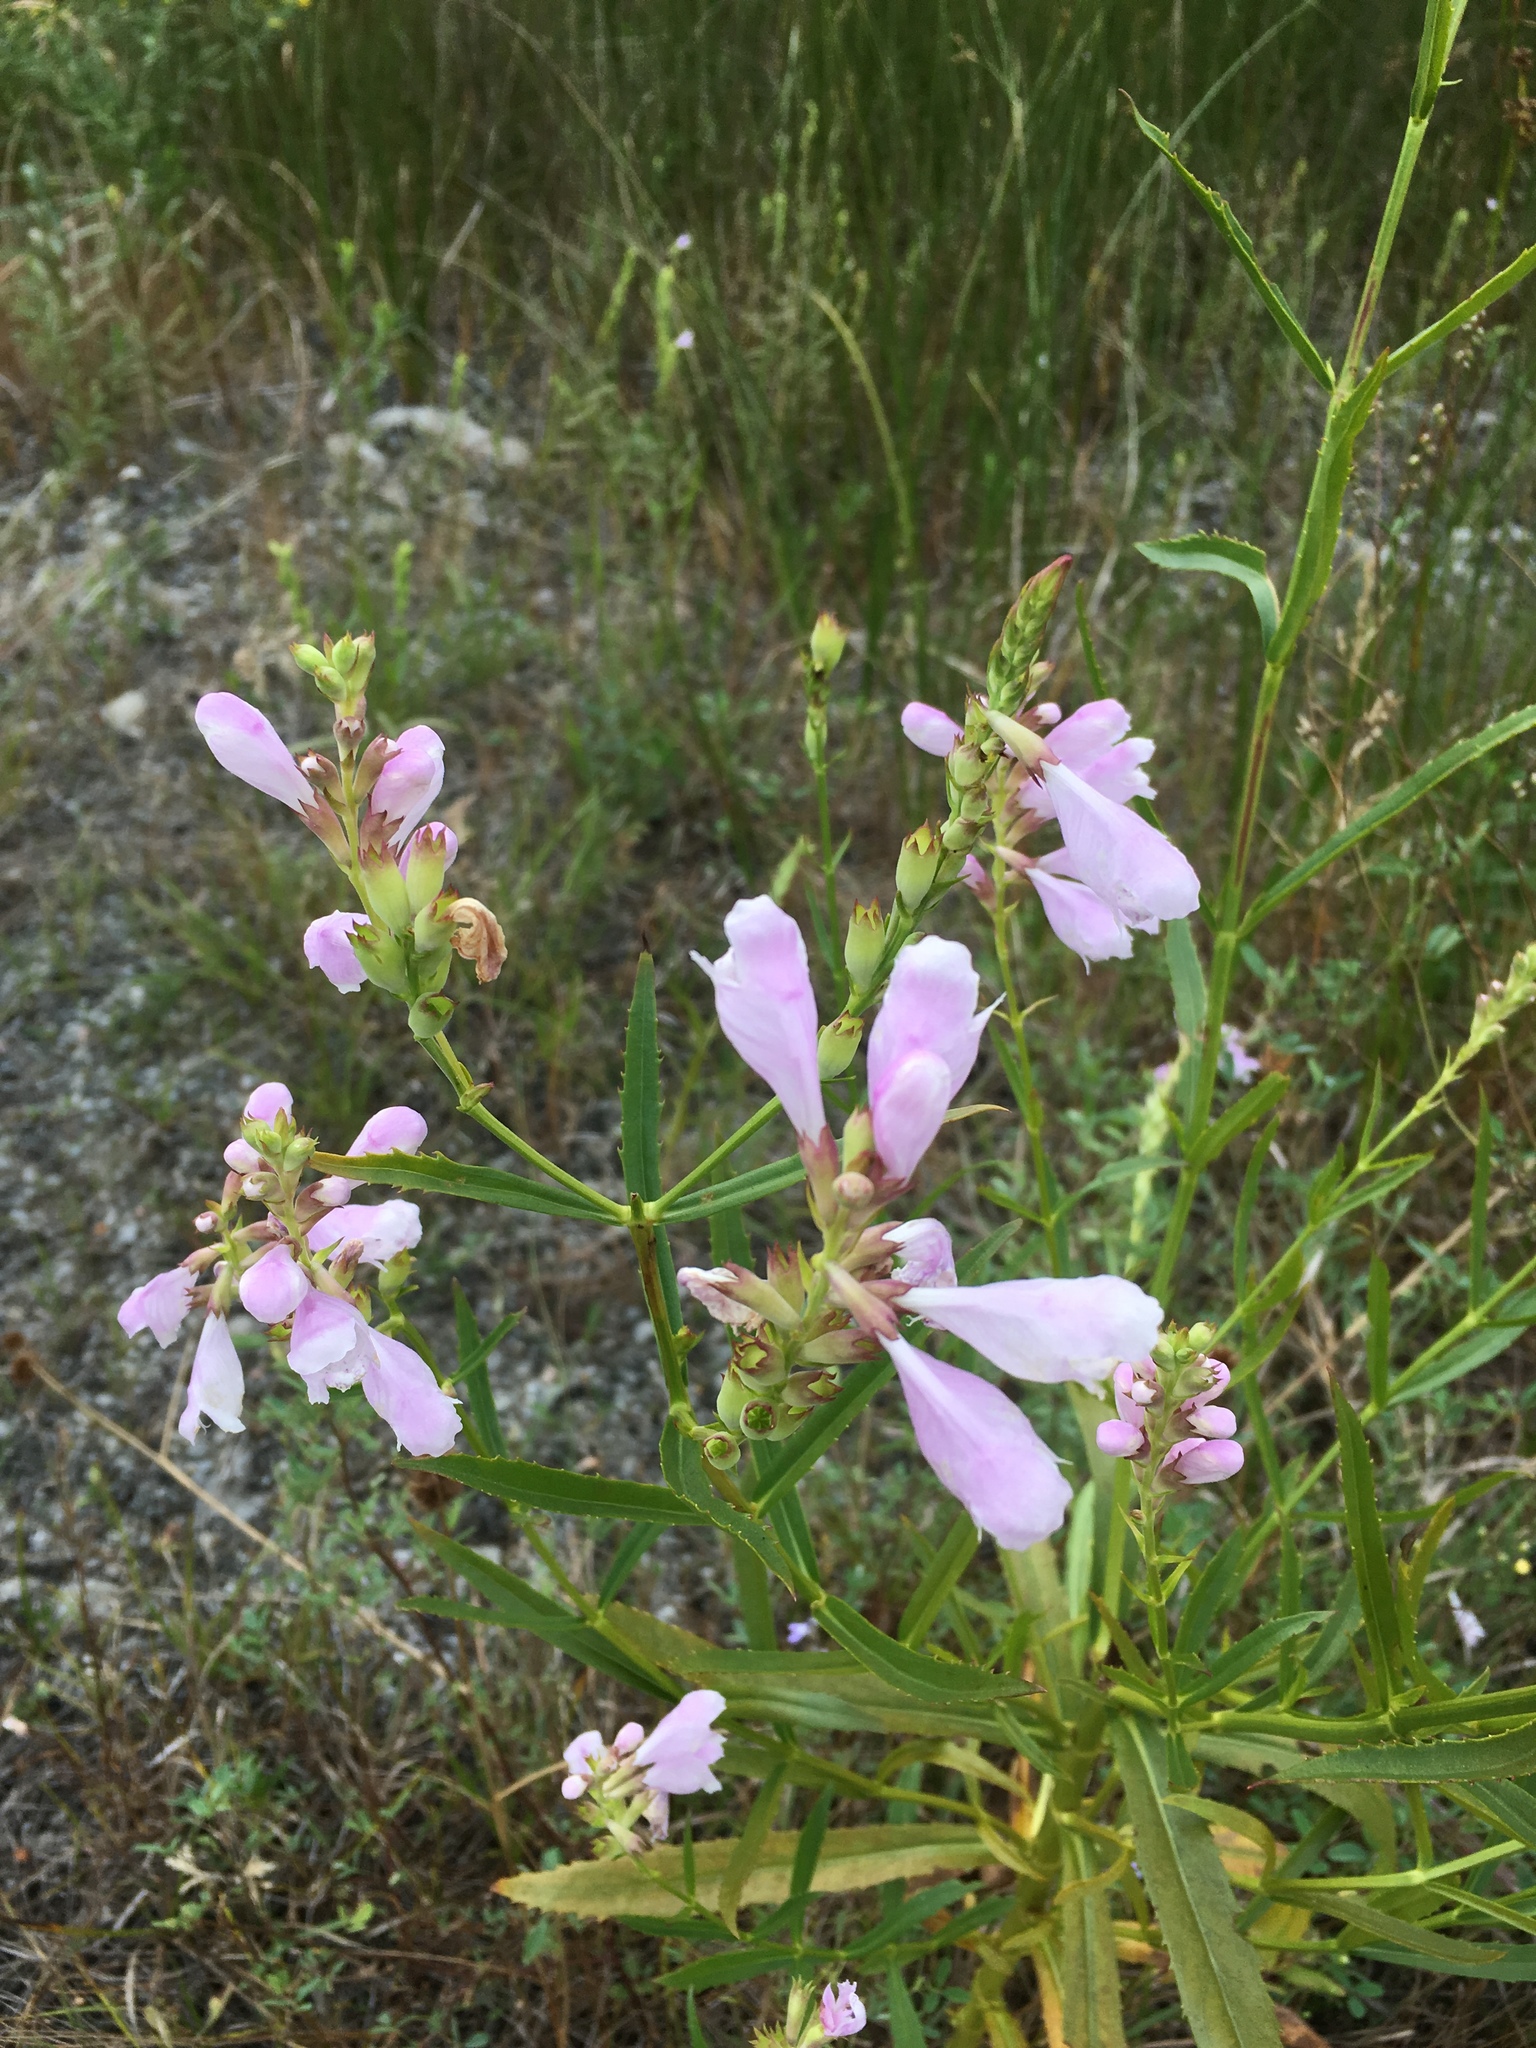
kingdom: Plantae
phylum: Tracheophyta
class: Magnoliopsida
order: Lamiales
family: Lamiaceae
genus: Physostegia
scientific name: Physostegia virginiana
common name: Obedient-plant
